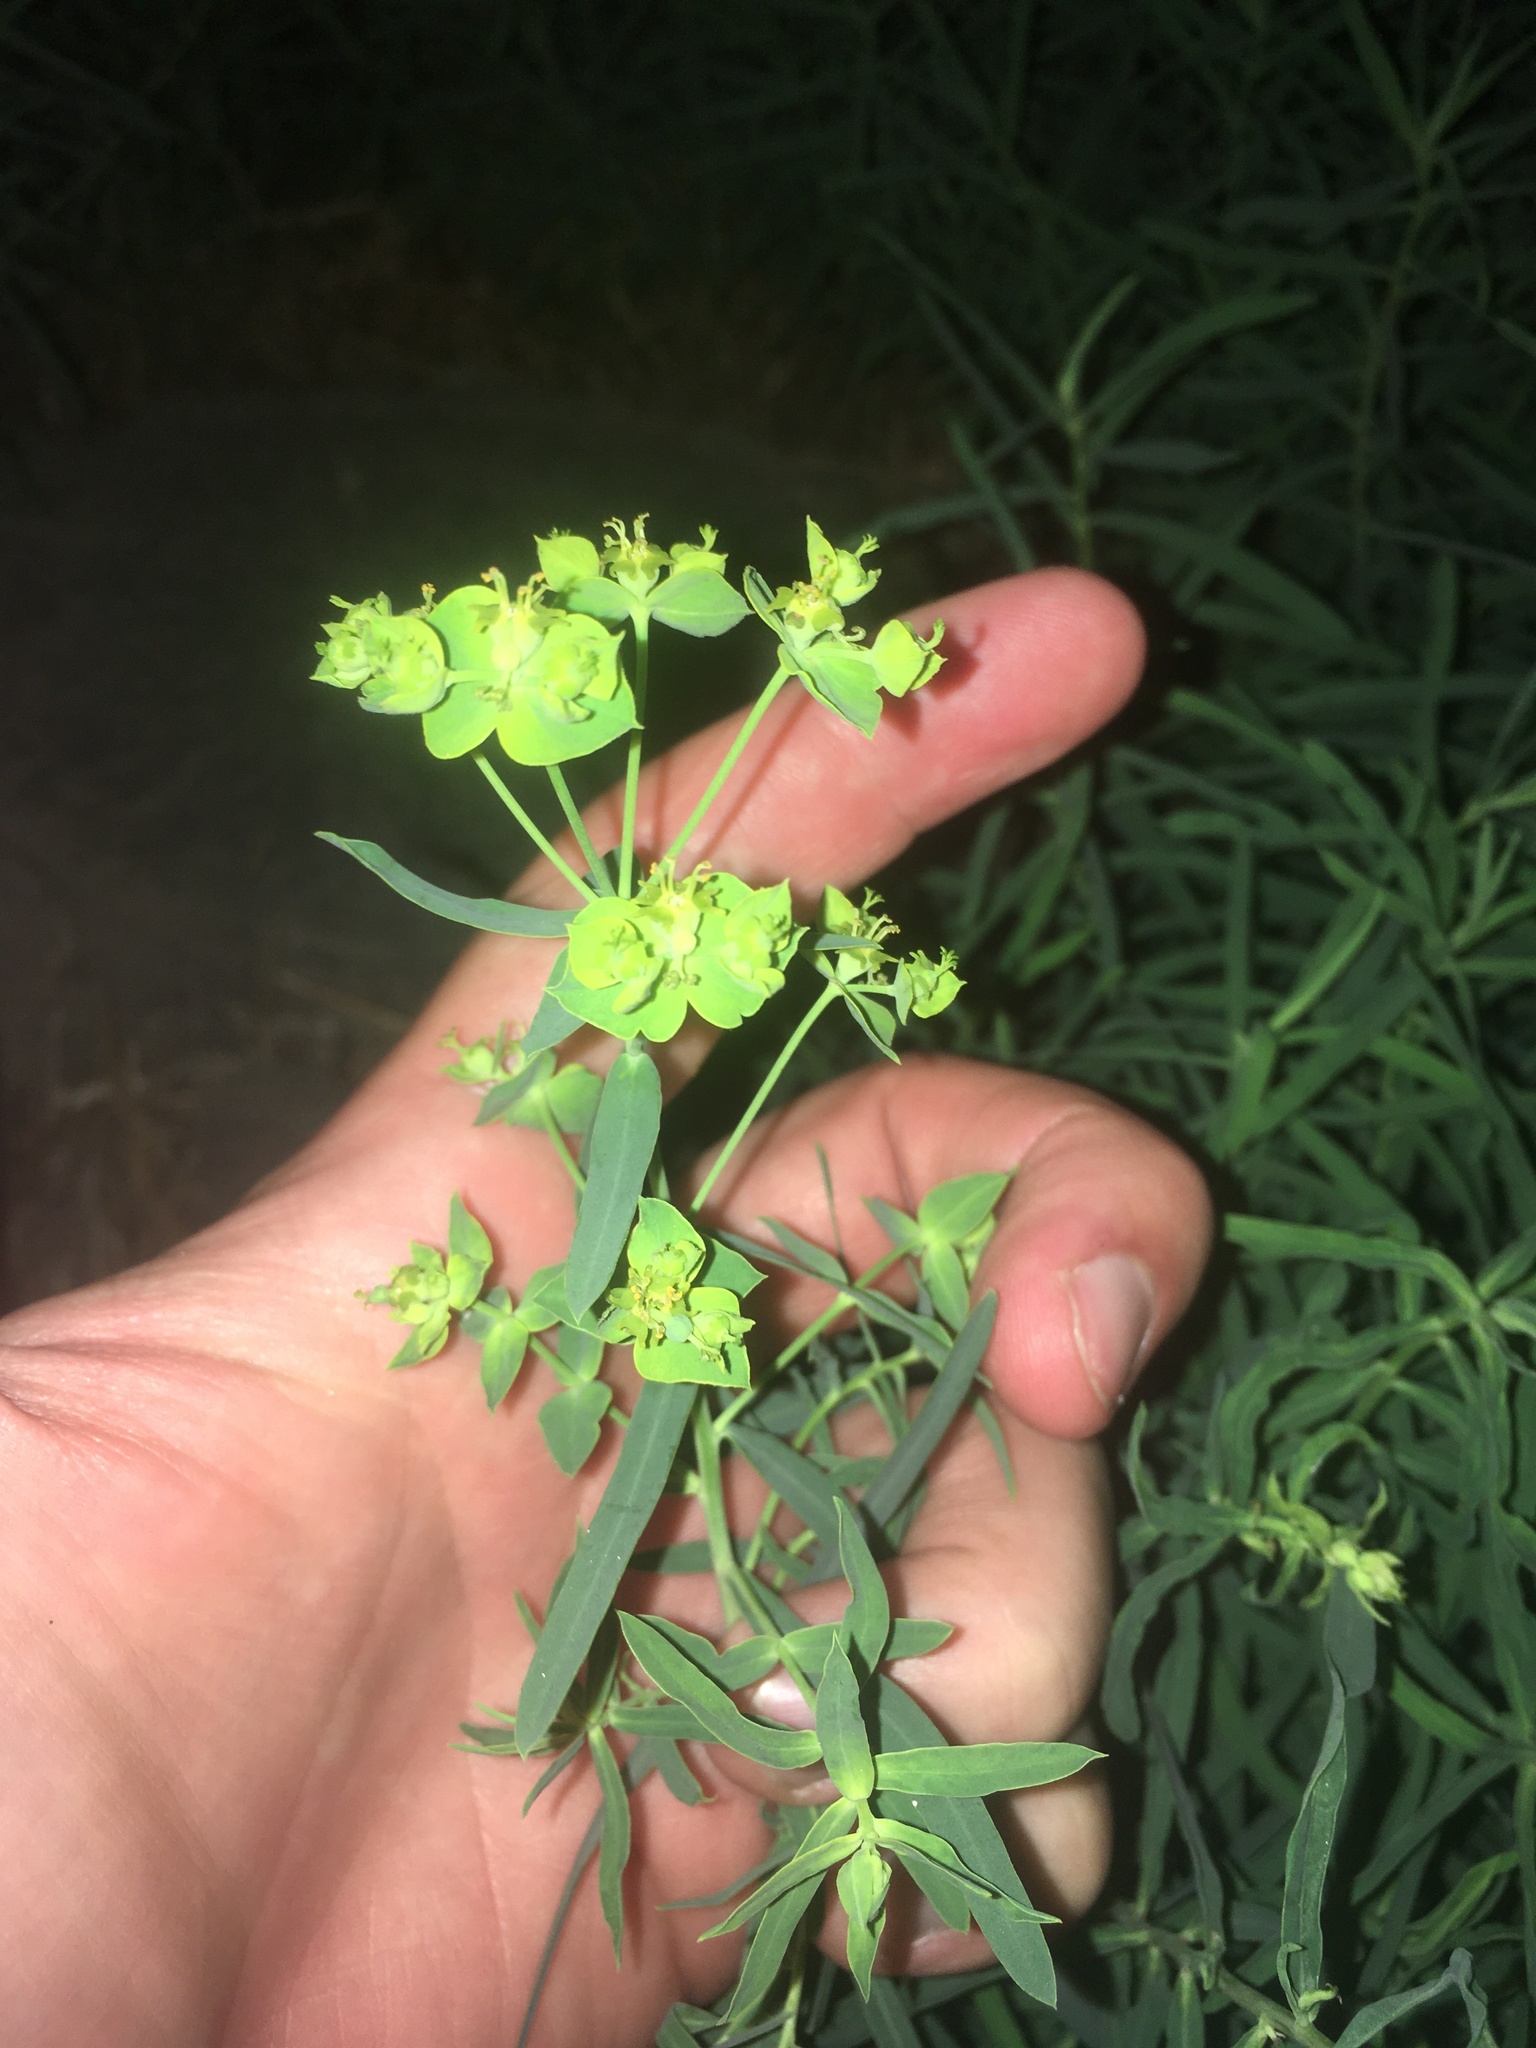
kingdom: Plantae
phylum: Tracheophyta
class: Magnoliopsida
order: Malpighiales
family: Euphorbiaceae
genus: Euphorbia
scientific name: Euphorbia virgata
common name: Leafy spurge
